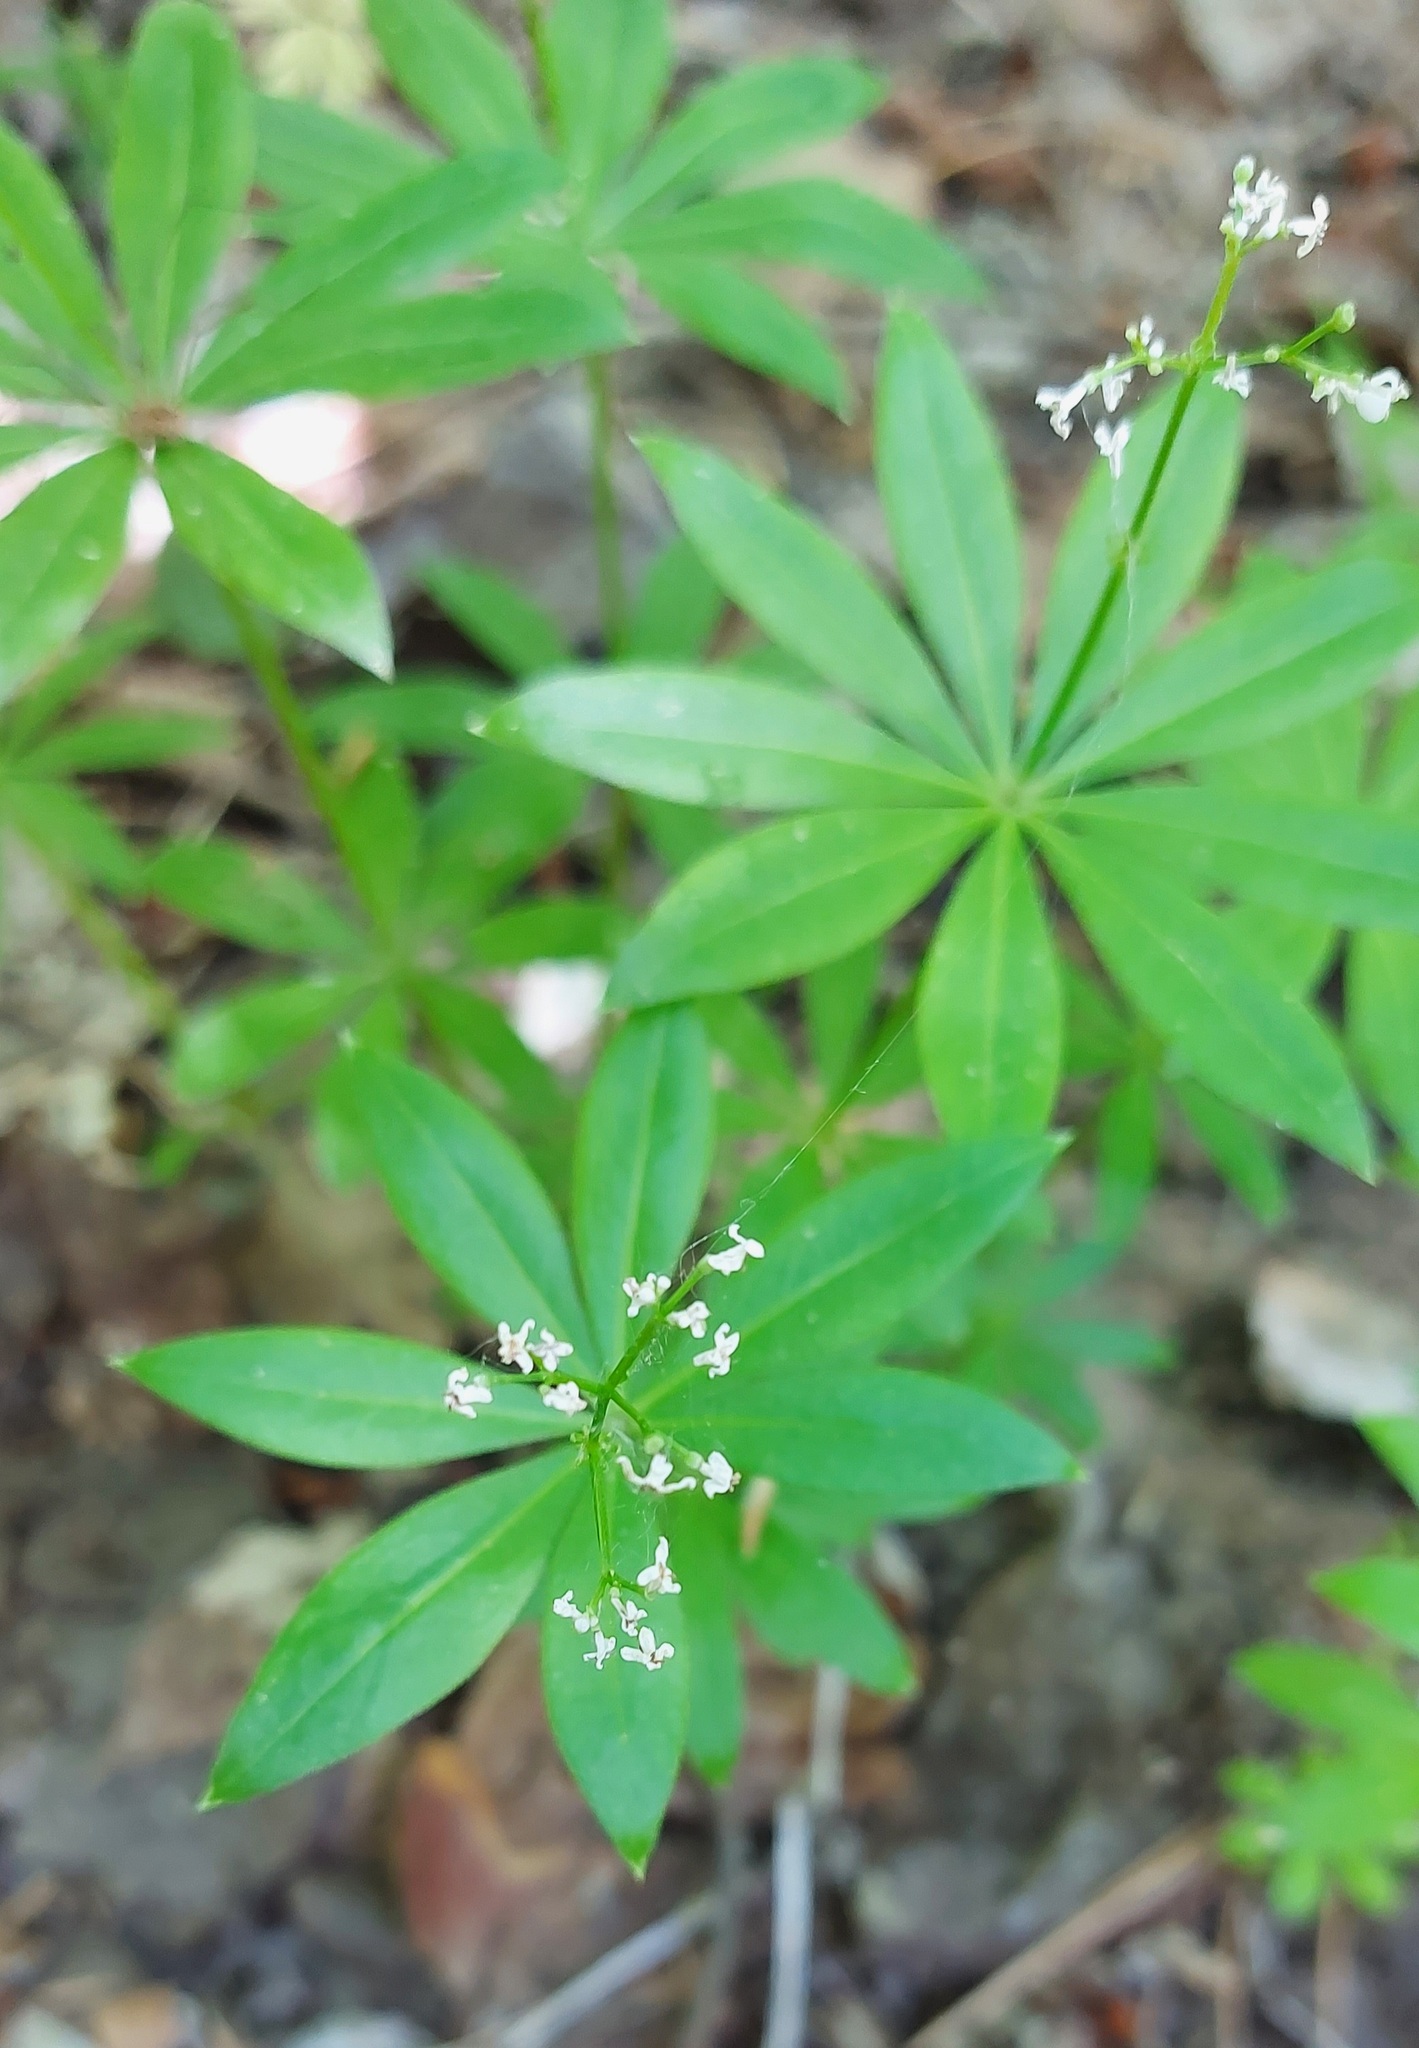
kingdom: Plantae
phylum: Tracheophyta
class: Magnoliopsida
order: Gentianales
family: Rubiaceae
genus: Galium
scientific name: Galium odoratum
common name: Sweet woodruff
